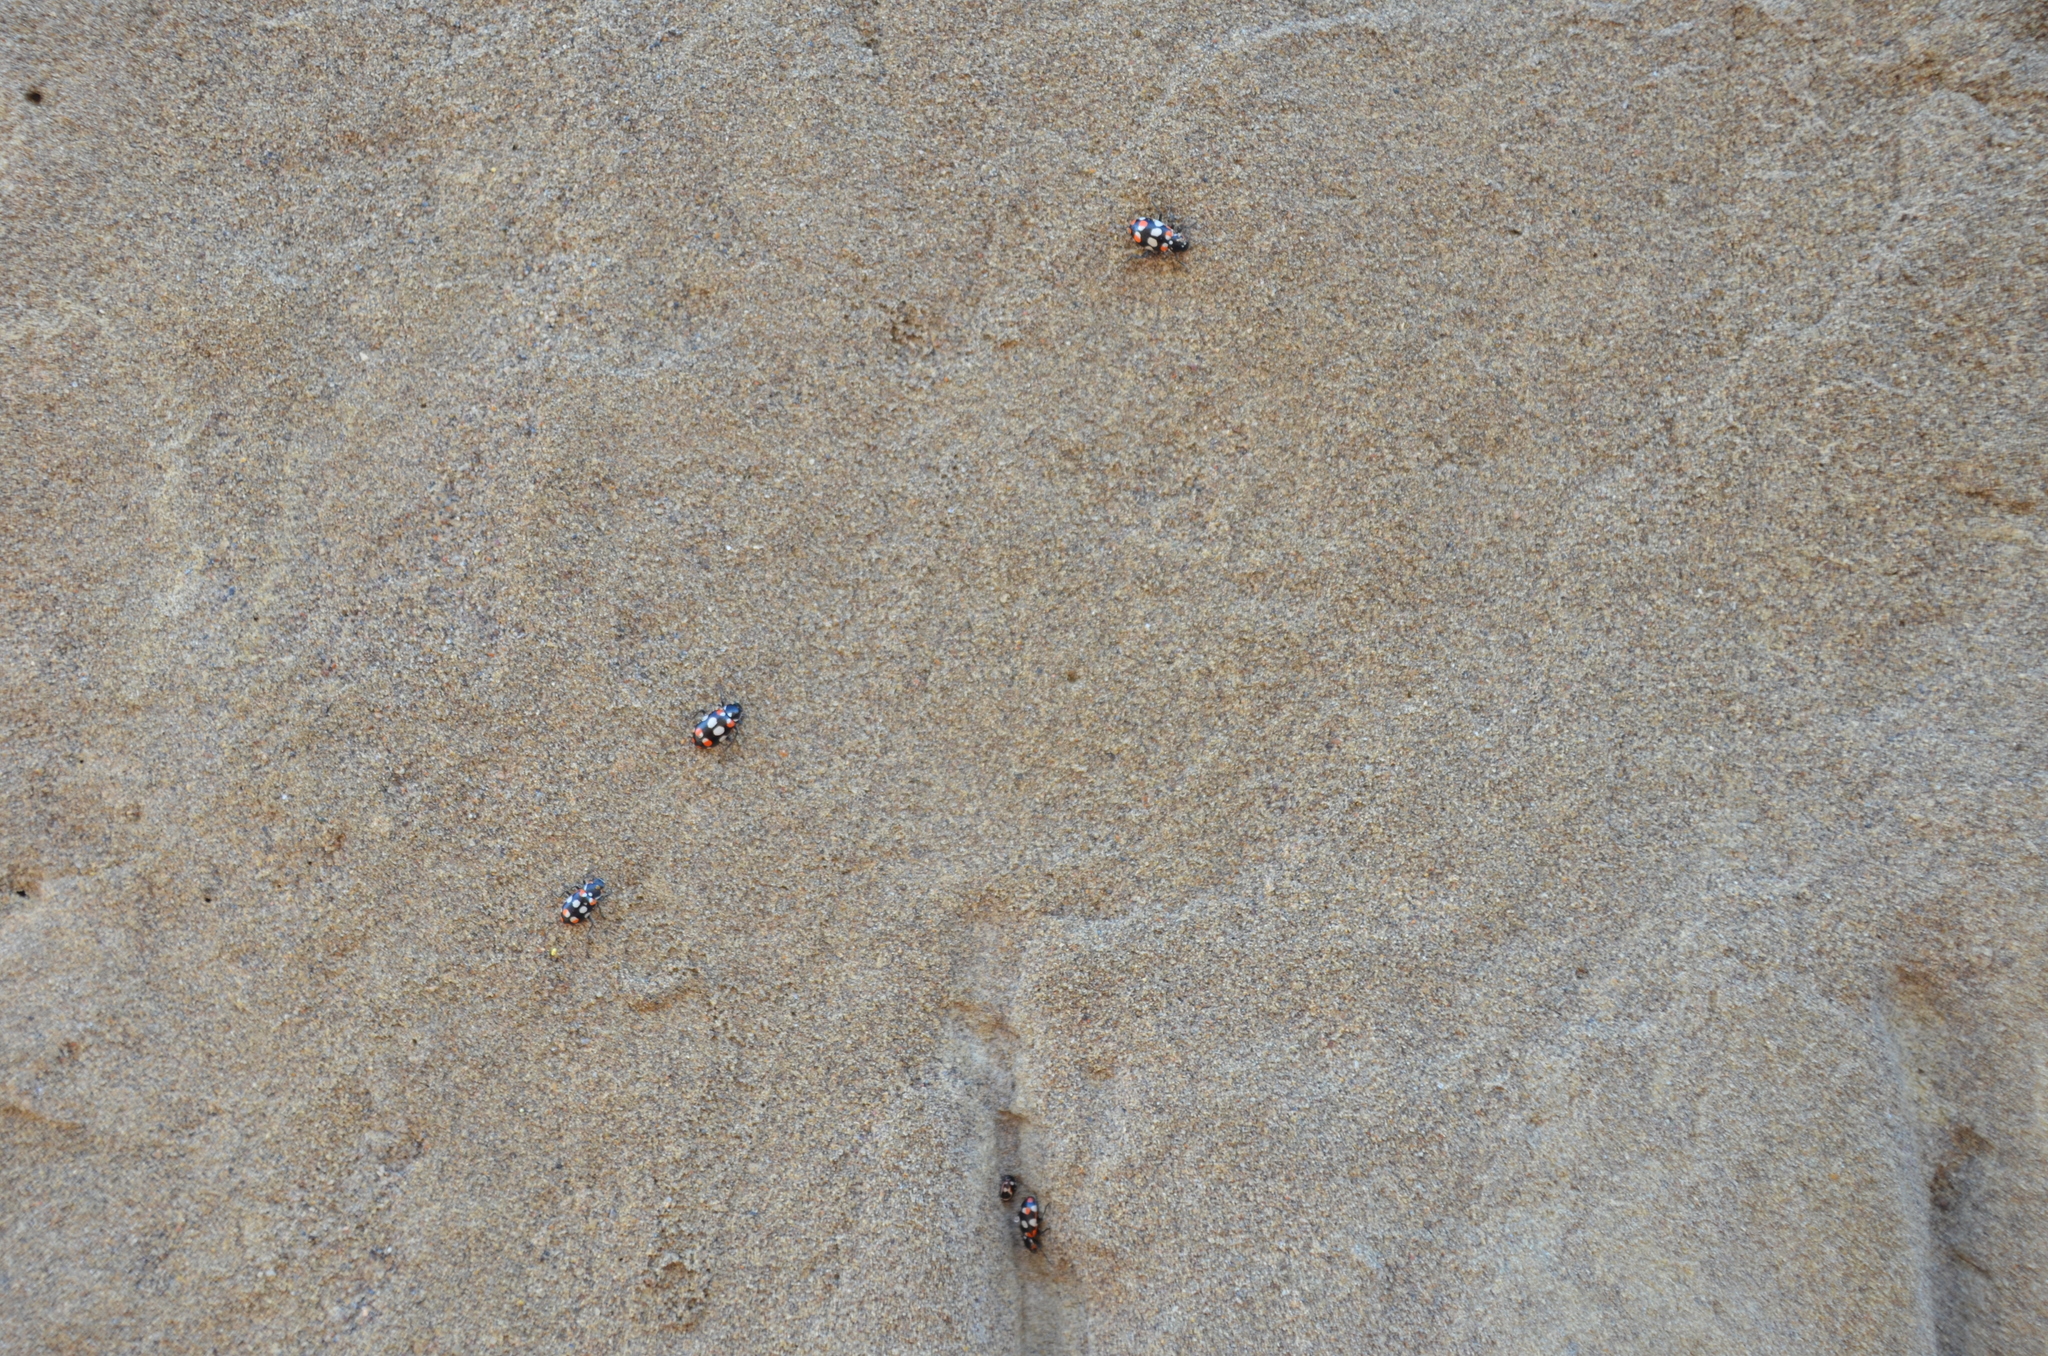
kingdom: Animalia
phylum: Arthropoda
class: Insecta
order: Coleoptera
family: Coccinellidae
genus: Eriopis
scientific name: Eriopis connexa
